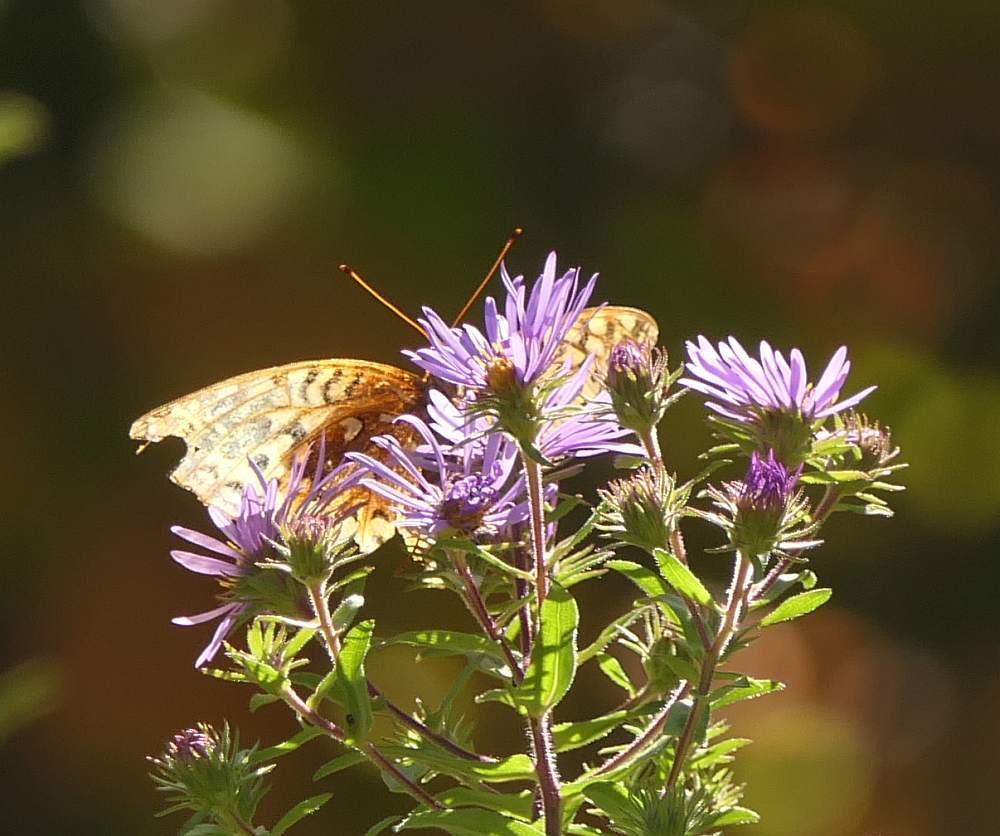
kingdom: Animalia
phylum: Arthropoda
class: Insecta
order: Lepidoptera
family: Nymphalidae
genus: Argynnis
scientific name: Argynnis
